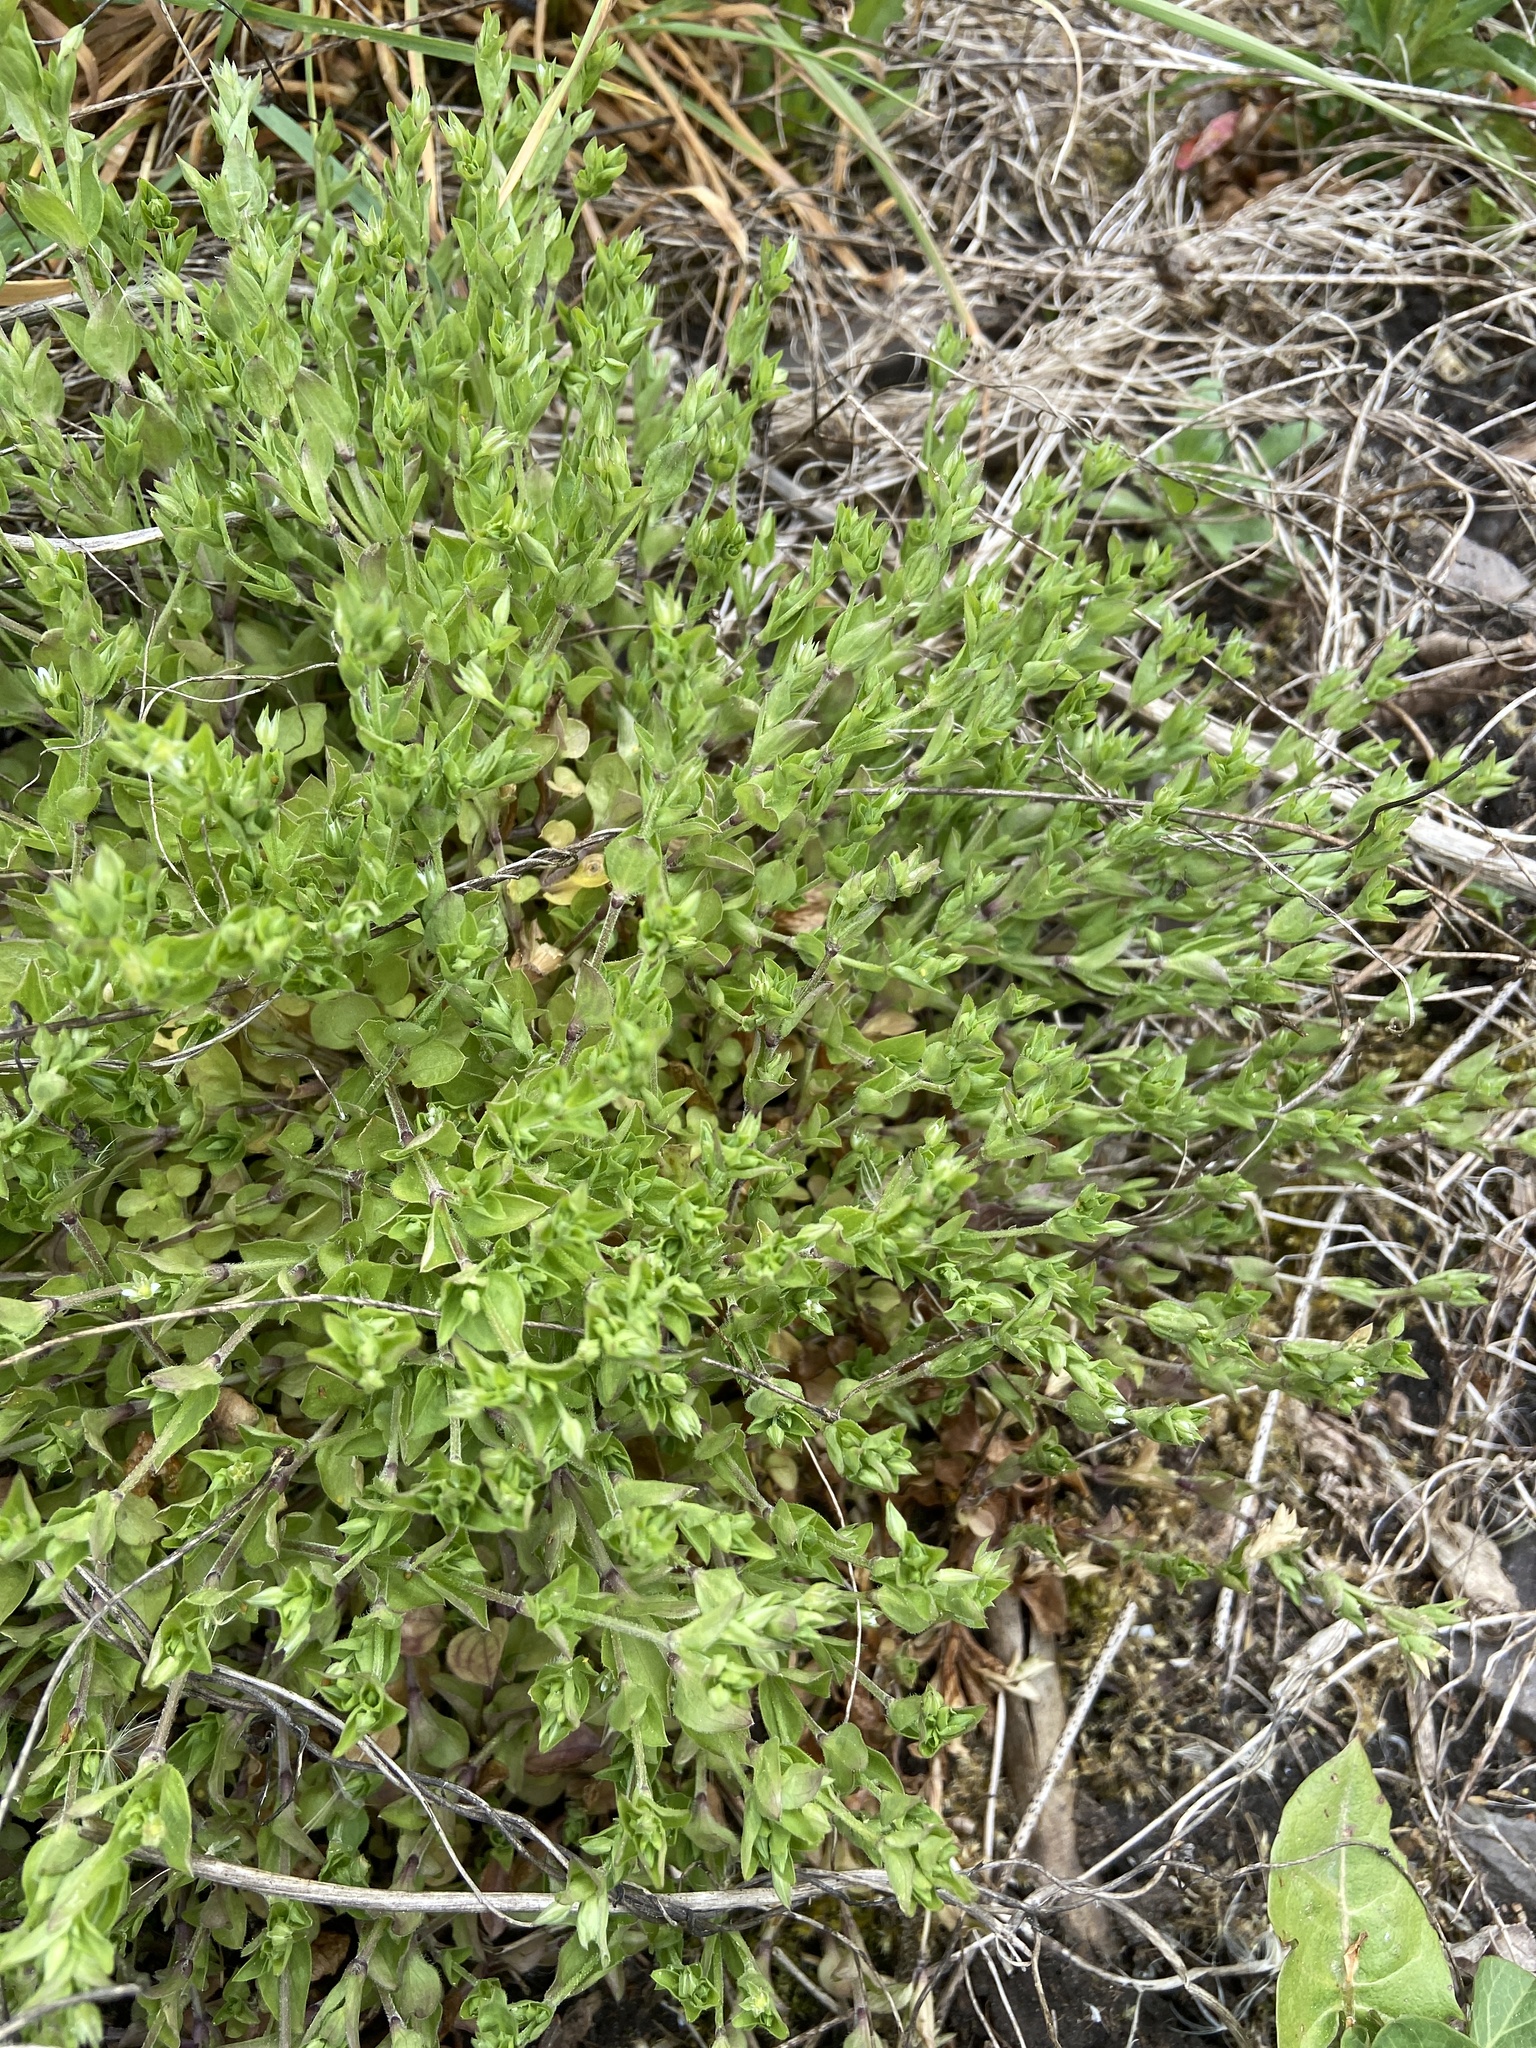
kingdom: Plantae
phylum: Tracheophyta
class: Magnoliopsida
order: Caryophyllales
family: Caryophyllaceae
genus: Moehringia
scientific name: Moehringia trinervia
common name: Three-nerved sandwort
